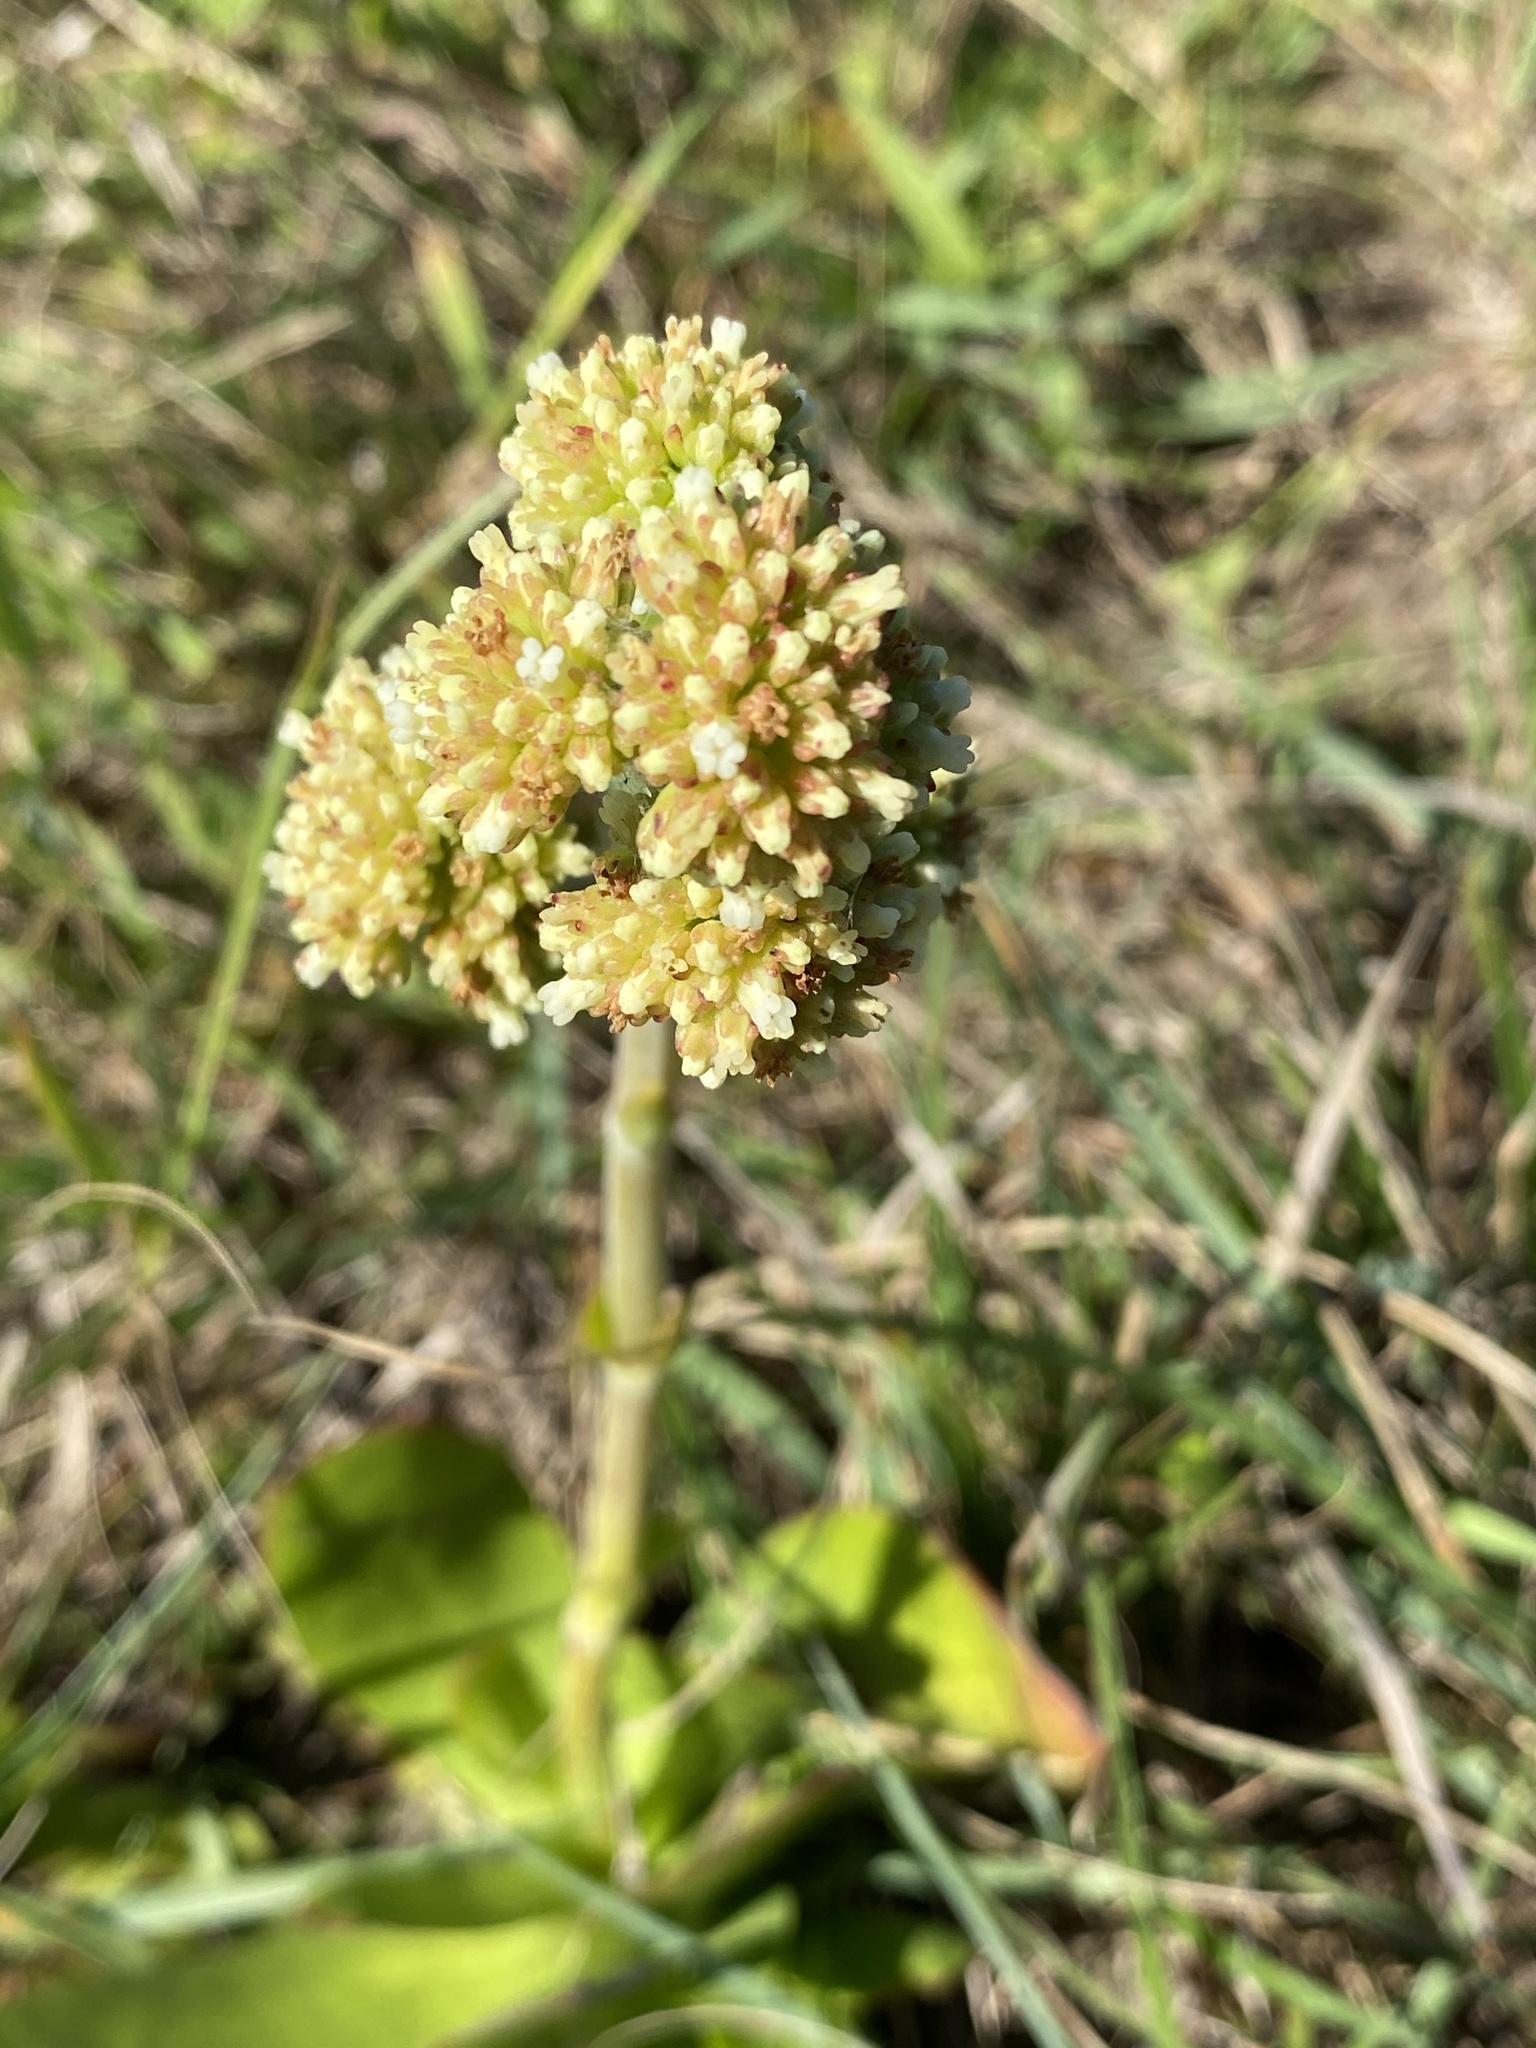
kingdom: Plantae
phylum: Tracheophyta
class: Magnoliopsida
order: Saxifragales
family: Crassulaceae
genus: Crassula
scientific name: Crassula nudicaulis
